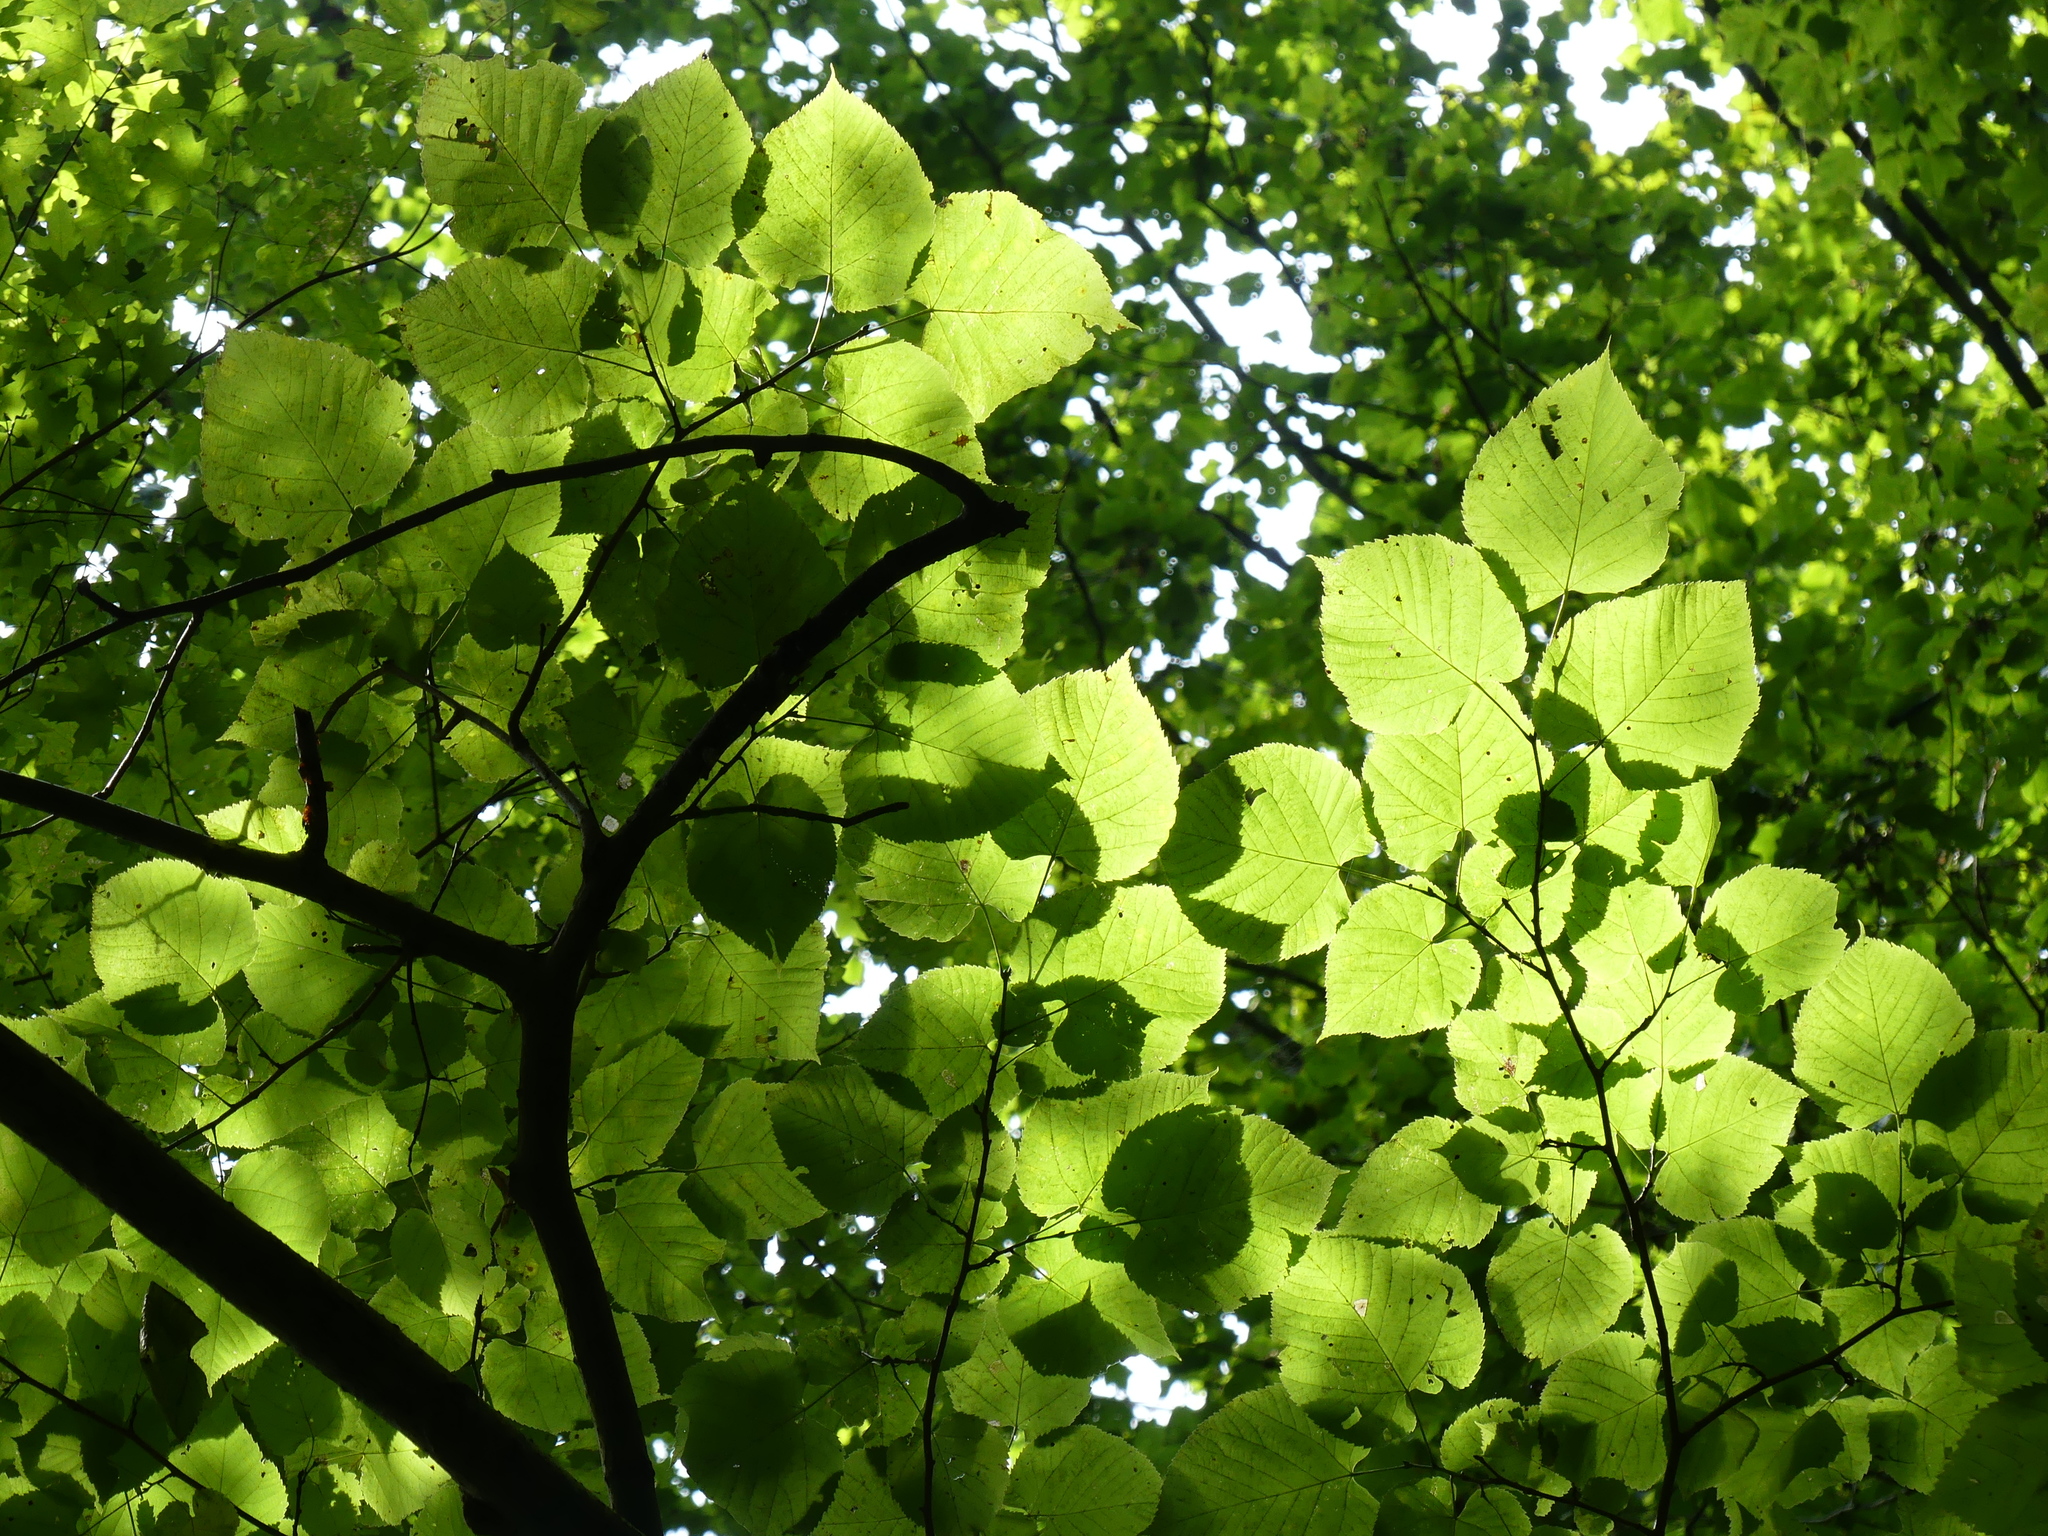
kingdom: Plantae
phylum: Tracheophyta
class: Magnoliopsida
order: Malvales
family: Malvaceae
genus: Tilia
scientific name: Tilia americana
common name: Basswood
